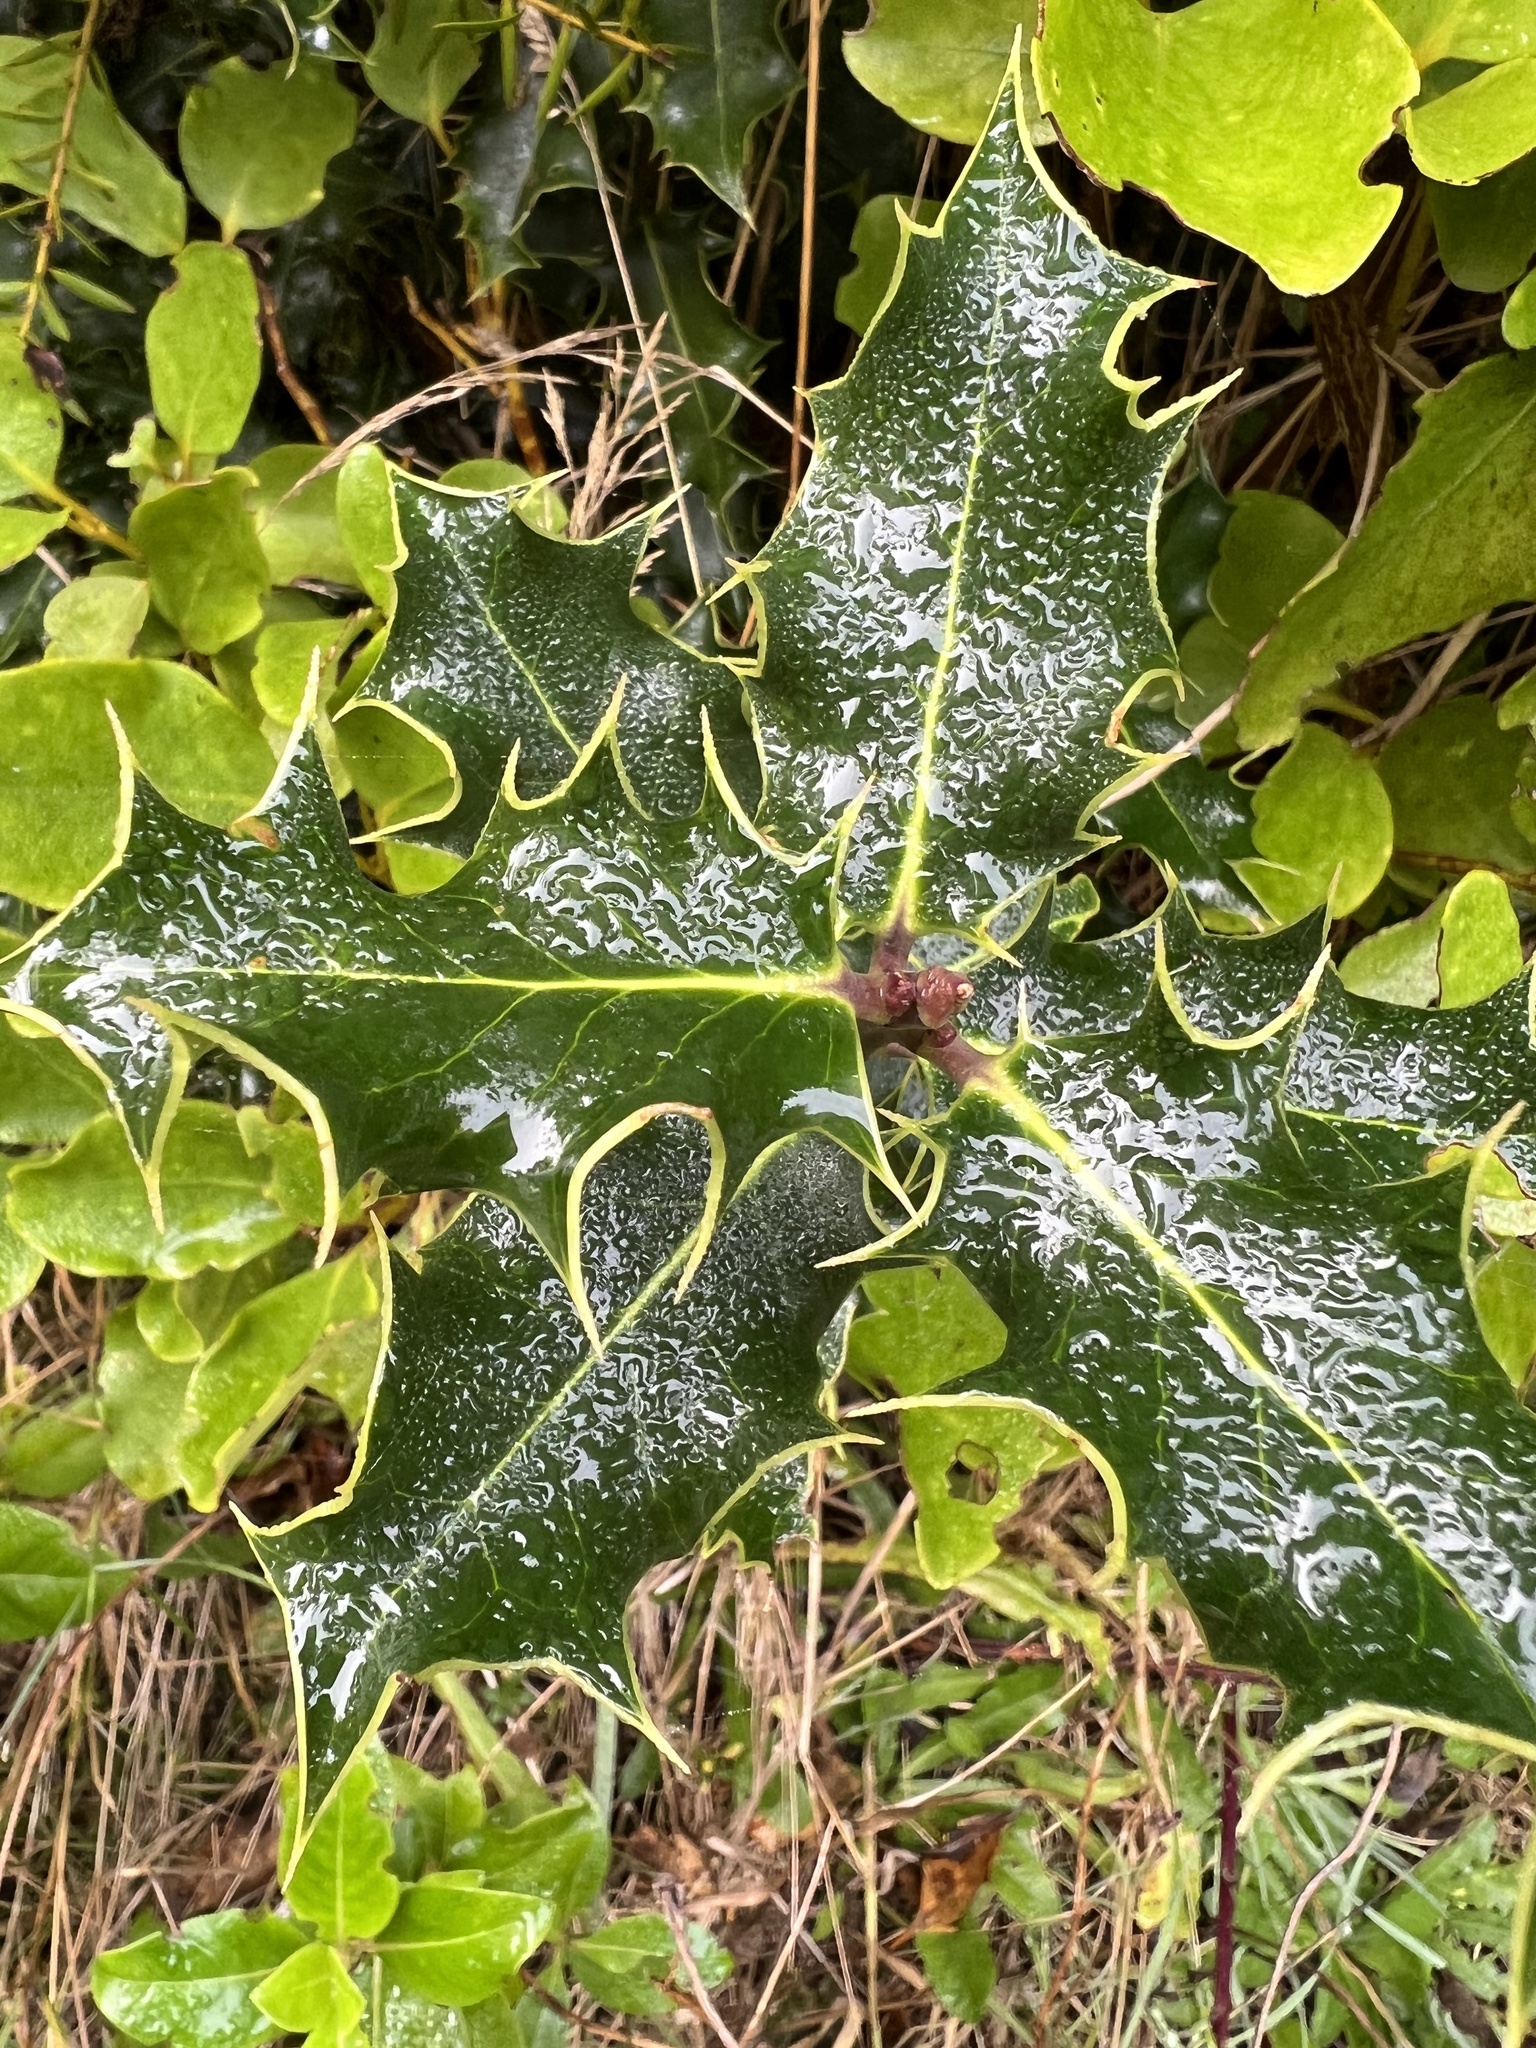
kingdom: Plantae
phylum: Tracheophyta
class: Magnoliopsida
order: Aquifoliales
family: Aquifoliaceae
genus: Ilex
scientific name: Ilex aquifolium
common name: English holly
